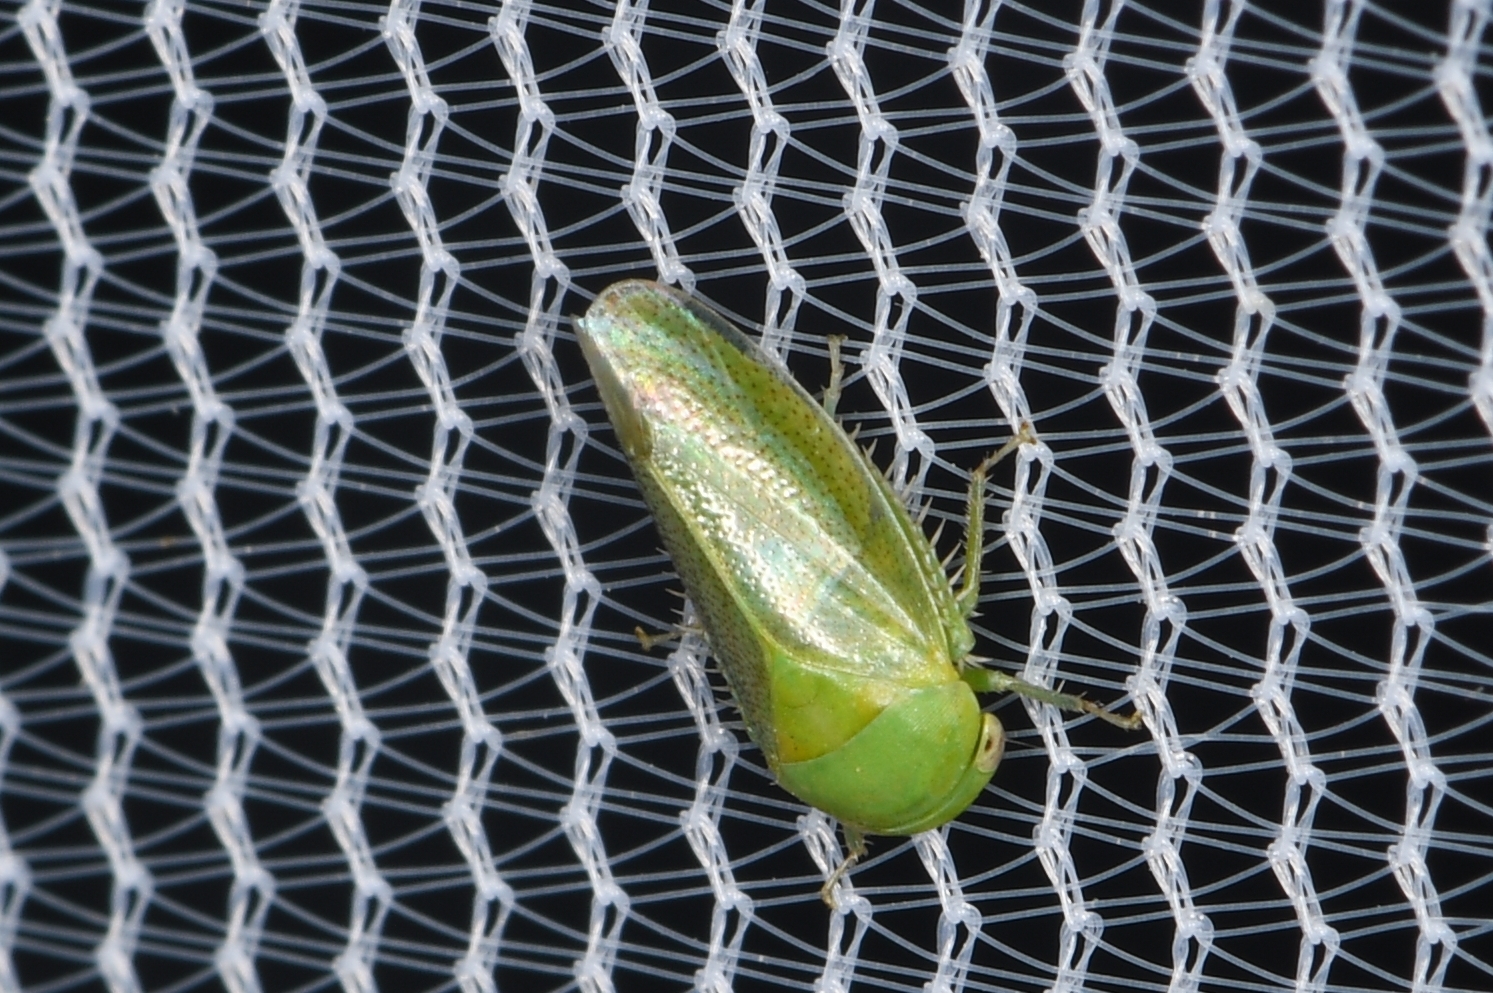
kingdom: Animalia
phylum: Arthropoda
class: Insecta
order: Hemiptera
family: Cicadellidae
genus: Penestragania
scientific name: Penestragania robusta
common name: Robust leafhopper
